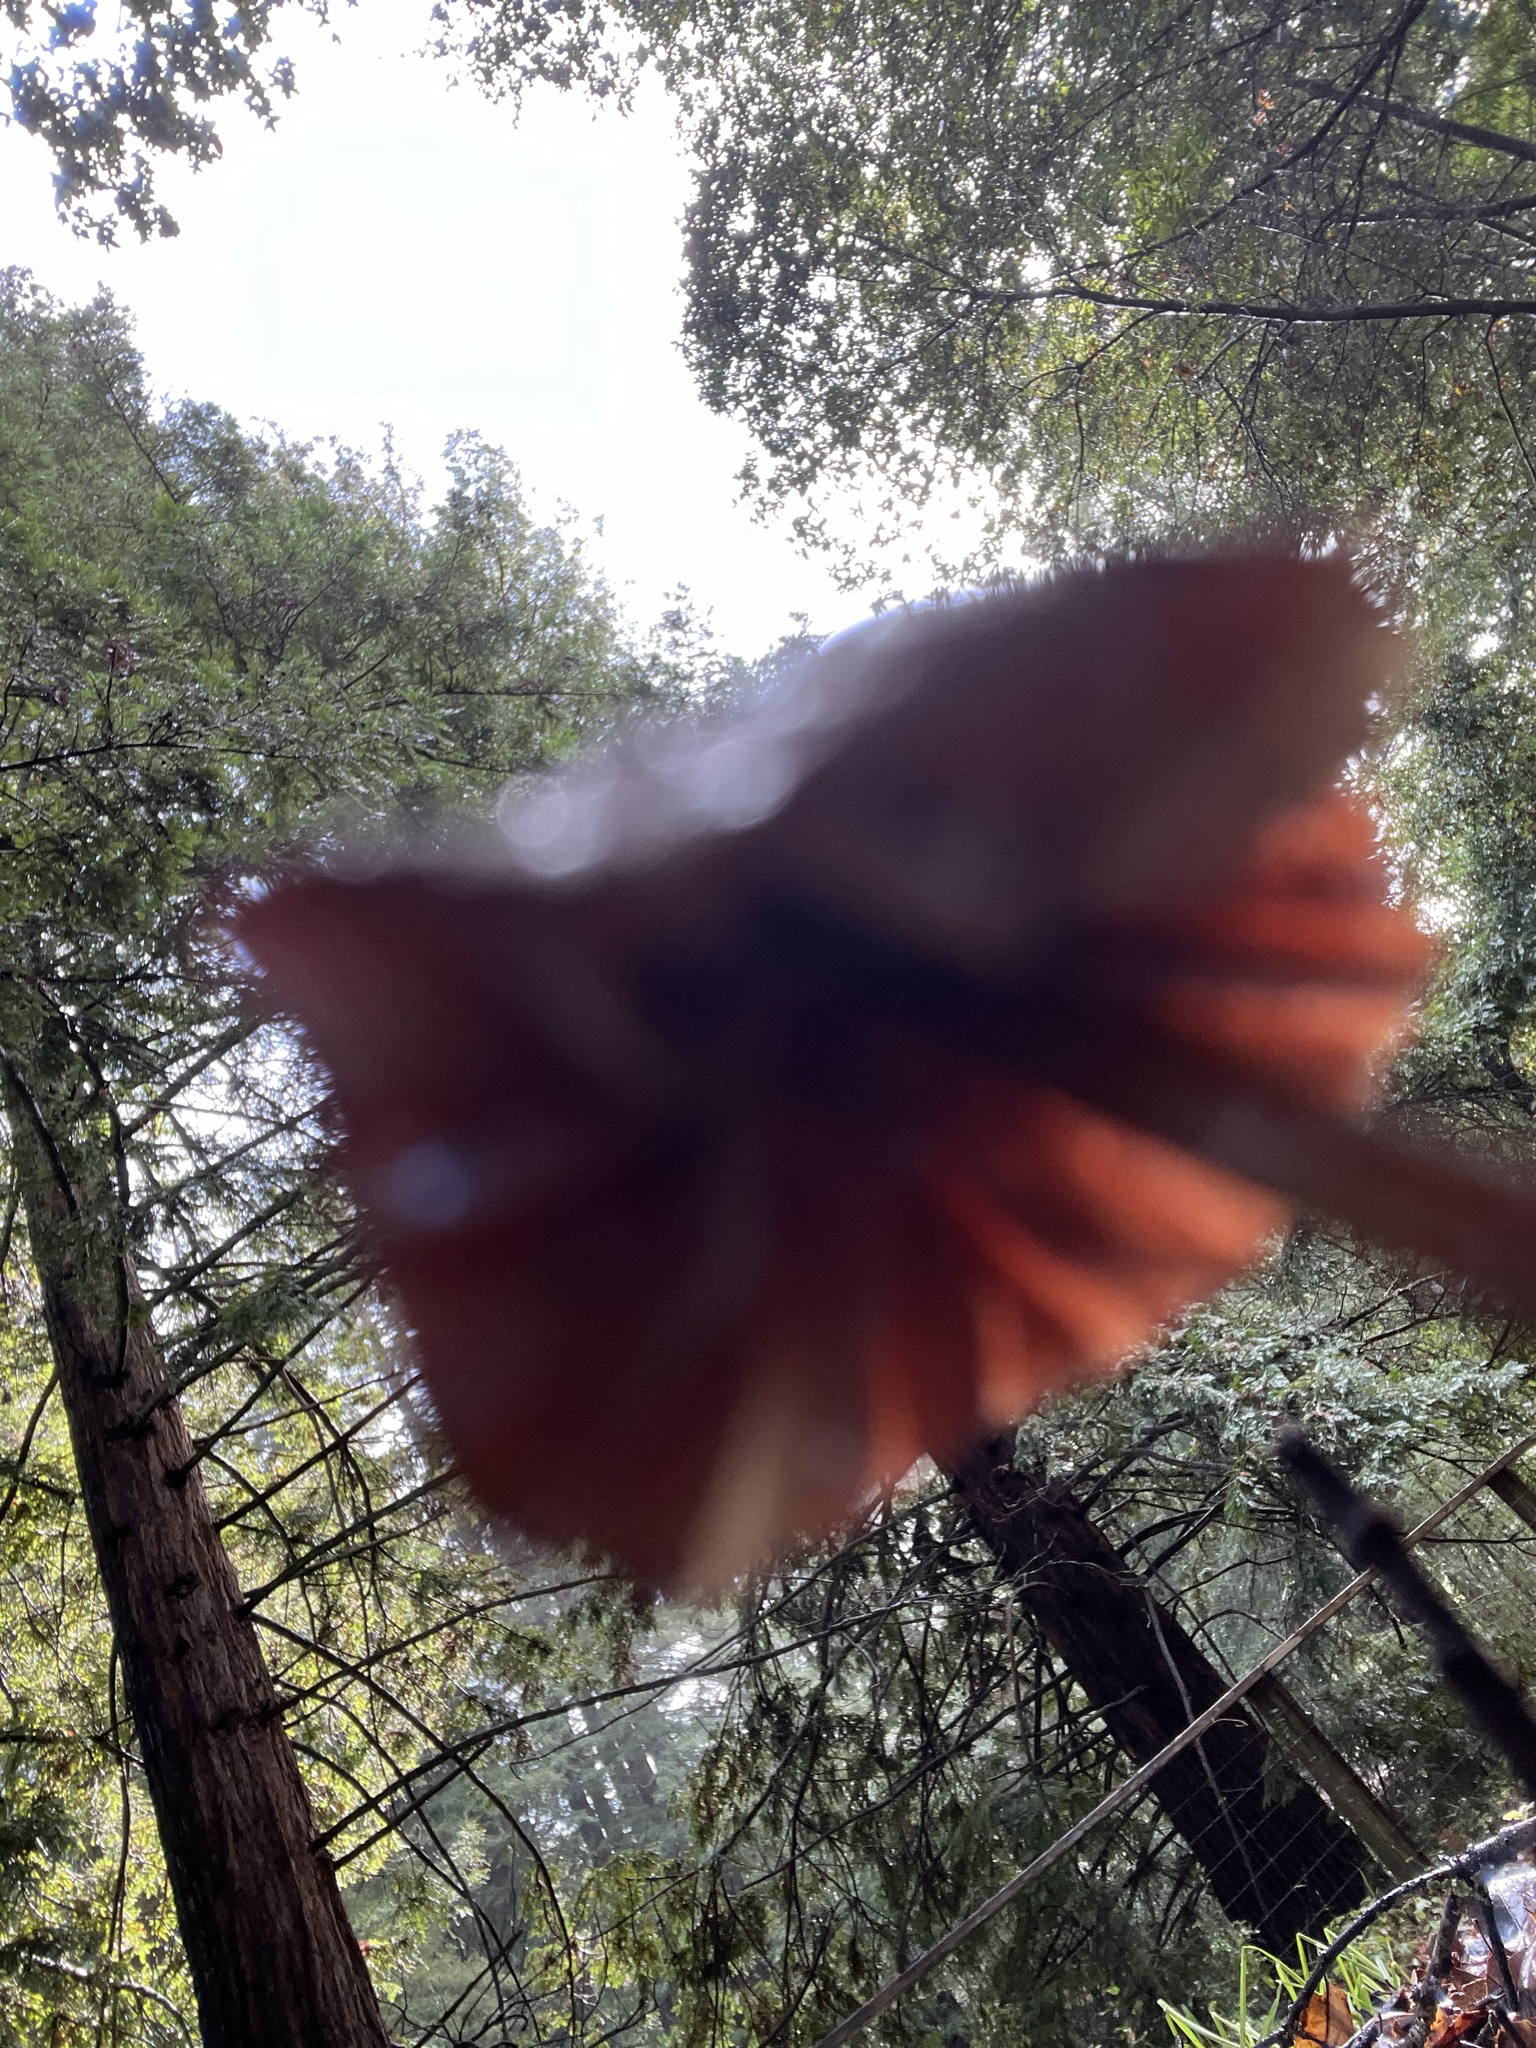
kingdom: Fungi
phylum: Basidiomycota
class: Agaricomycetes
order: Agaricales
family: Marasmiaceae
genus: Marasmius
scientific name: Marasmius plicatulus
